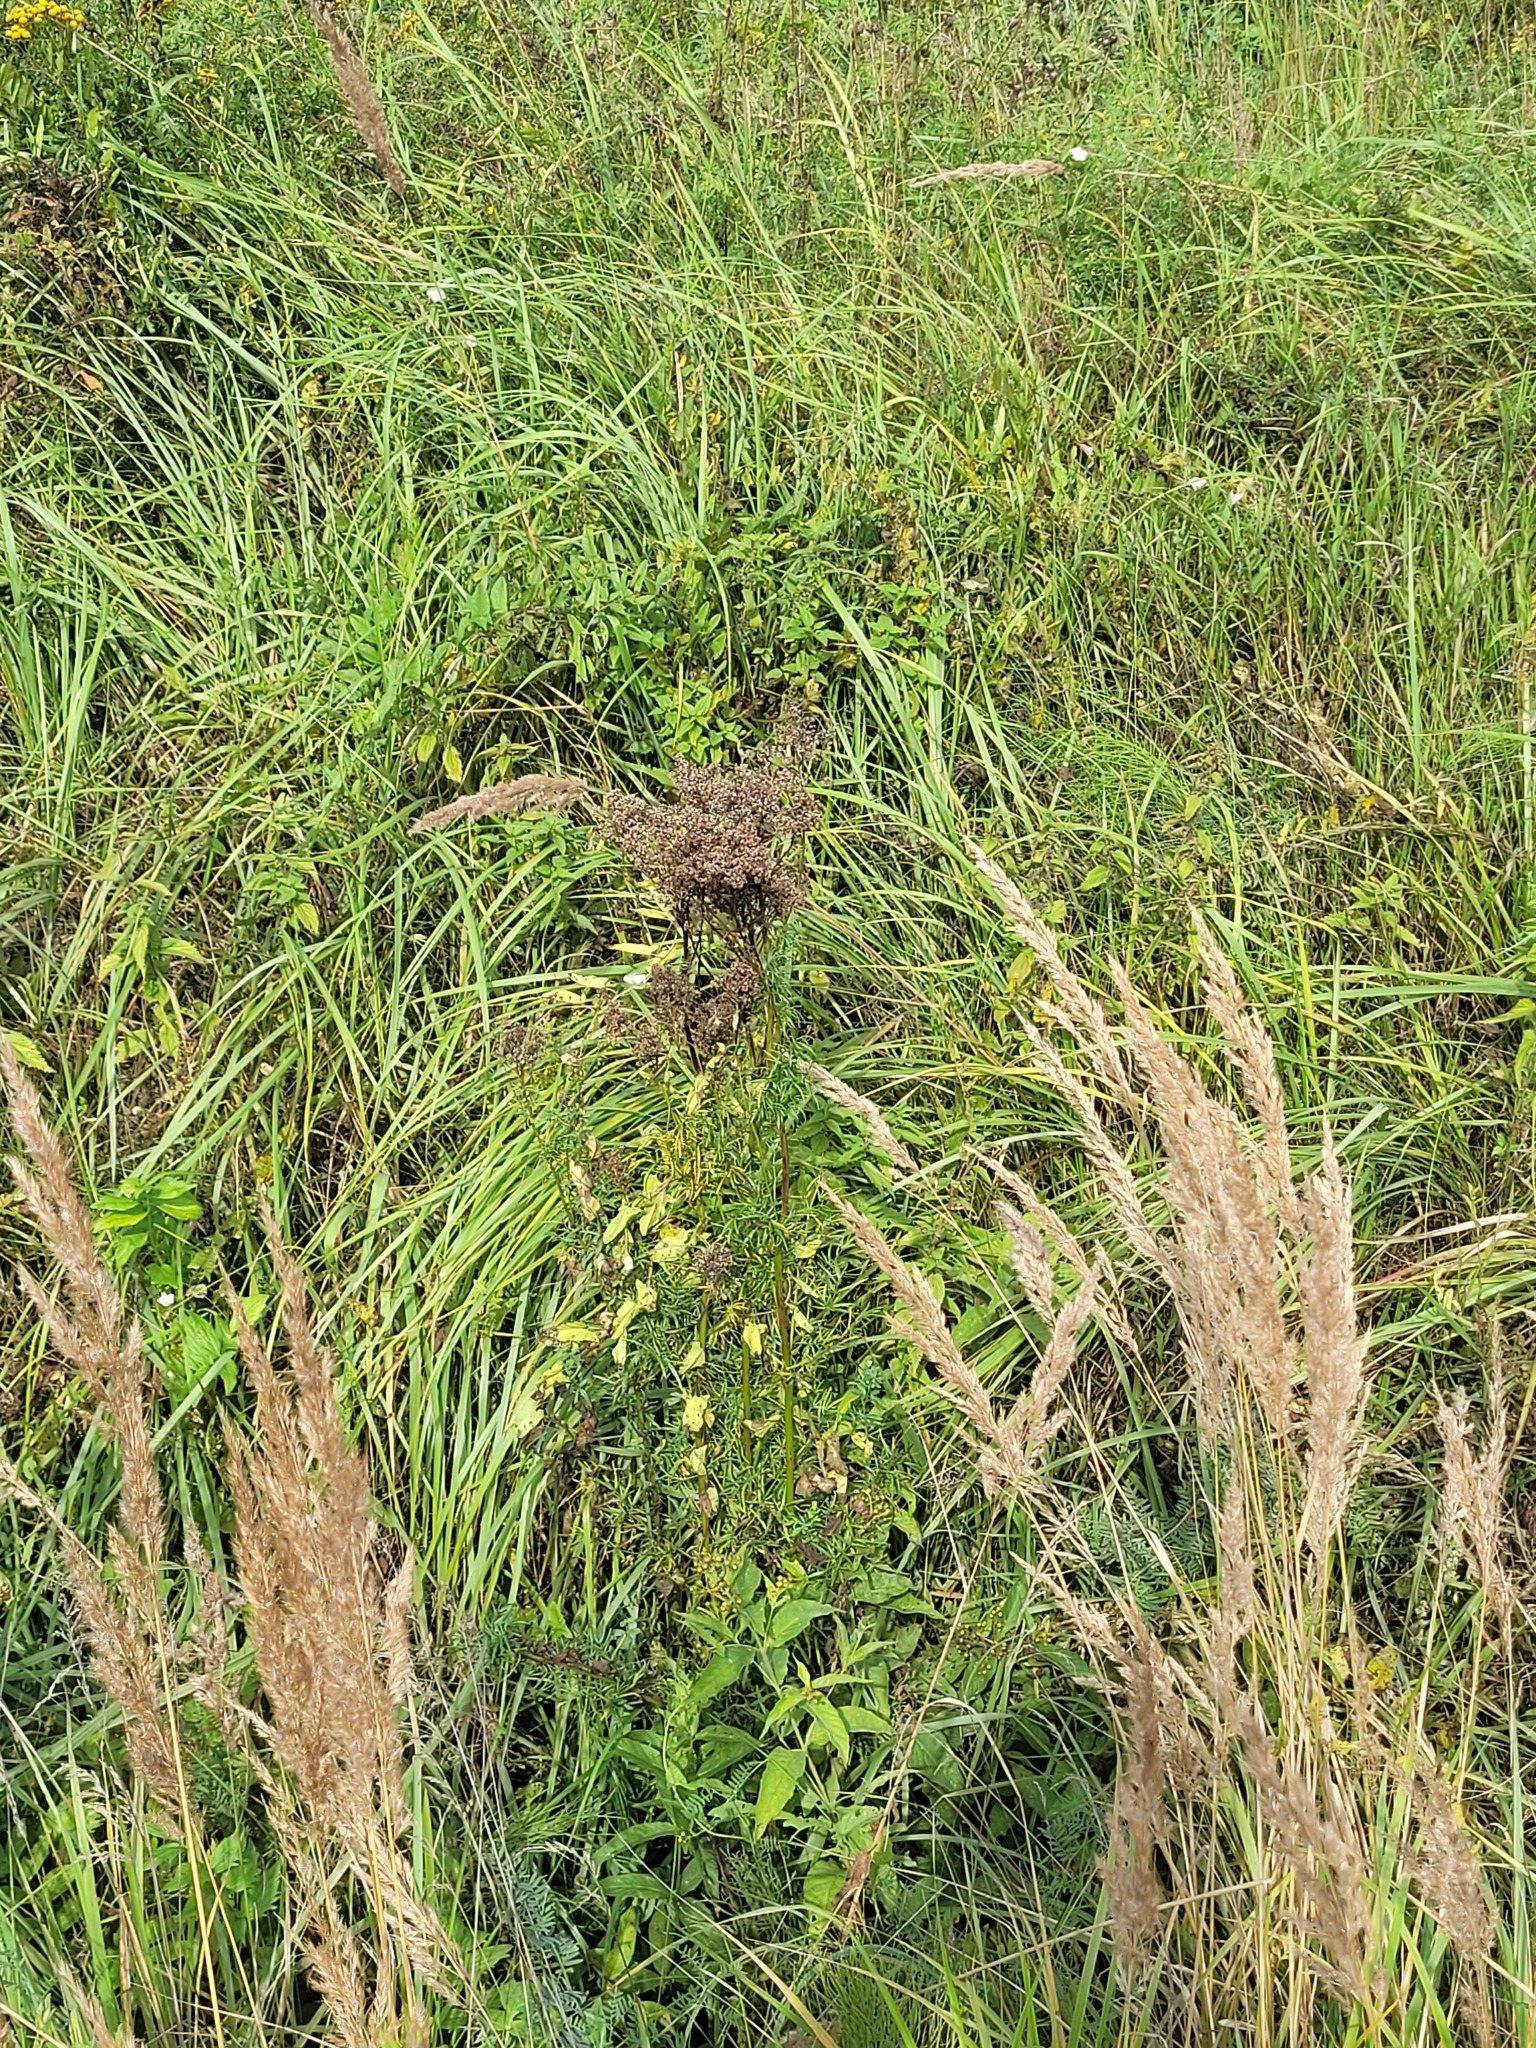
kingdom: Plantae
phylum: Tracheophyta
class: Magnoliopsida
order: Ranunculales
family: Ranunculaceae
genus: Thalictrum
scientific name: Thalictrum lucidum
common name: Shining meadow-rue
